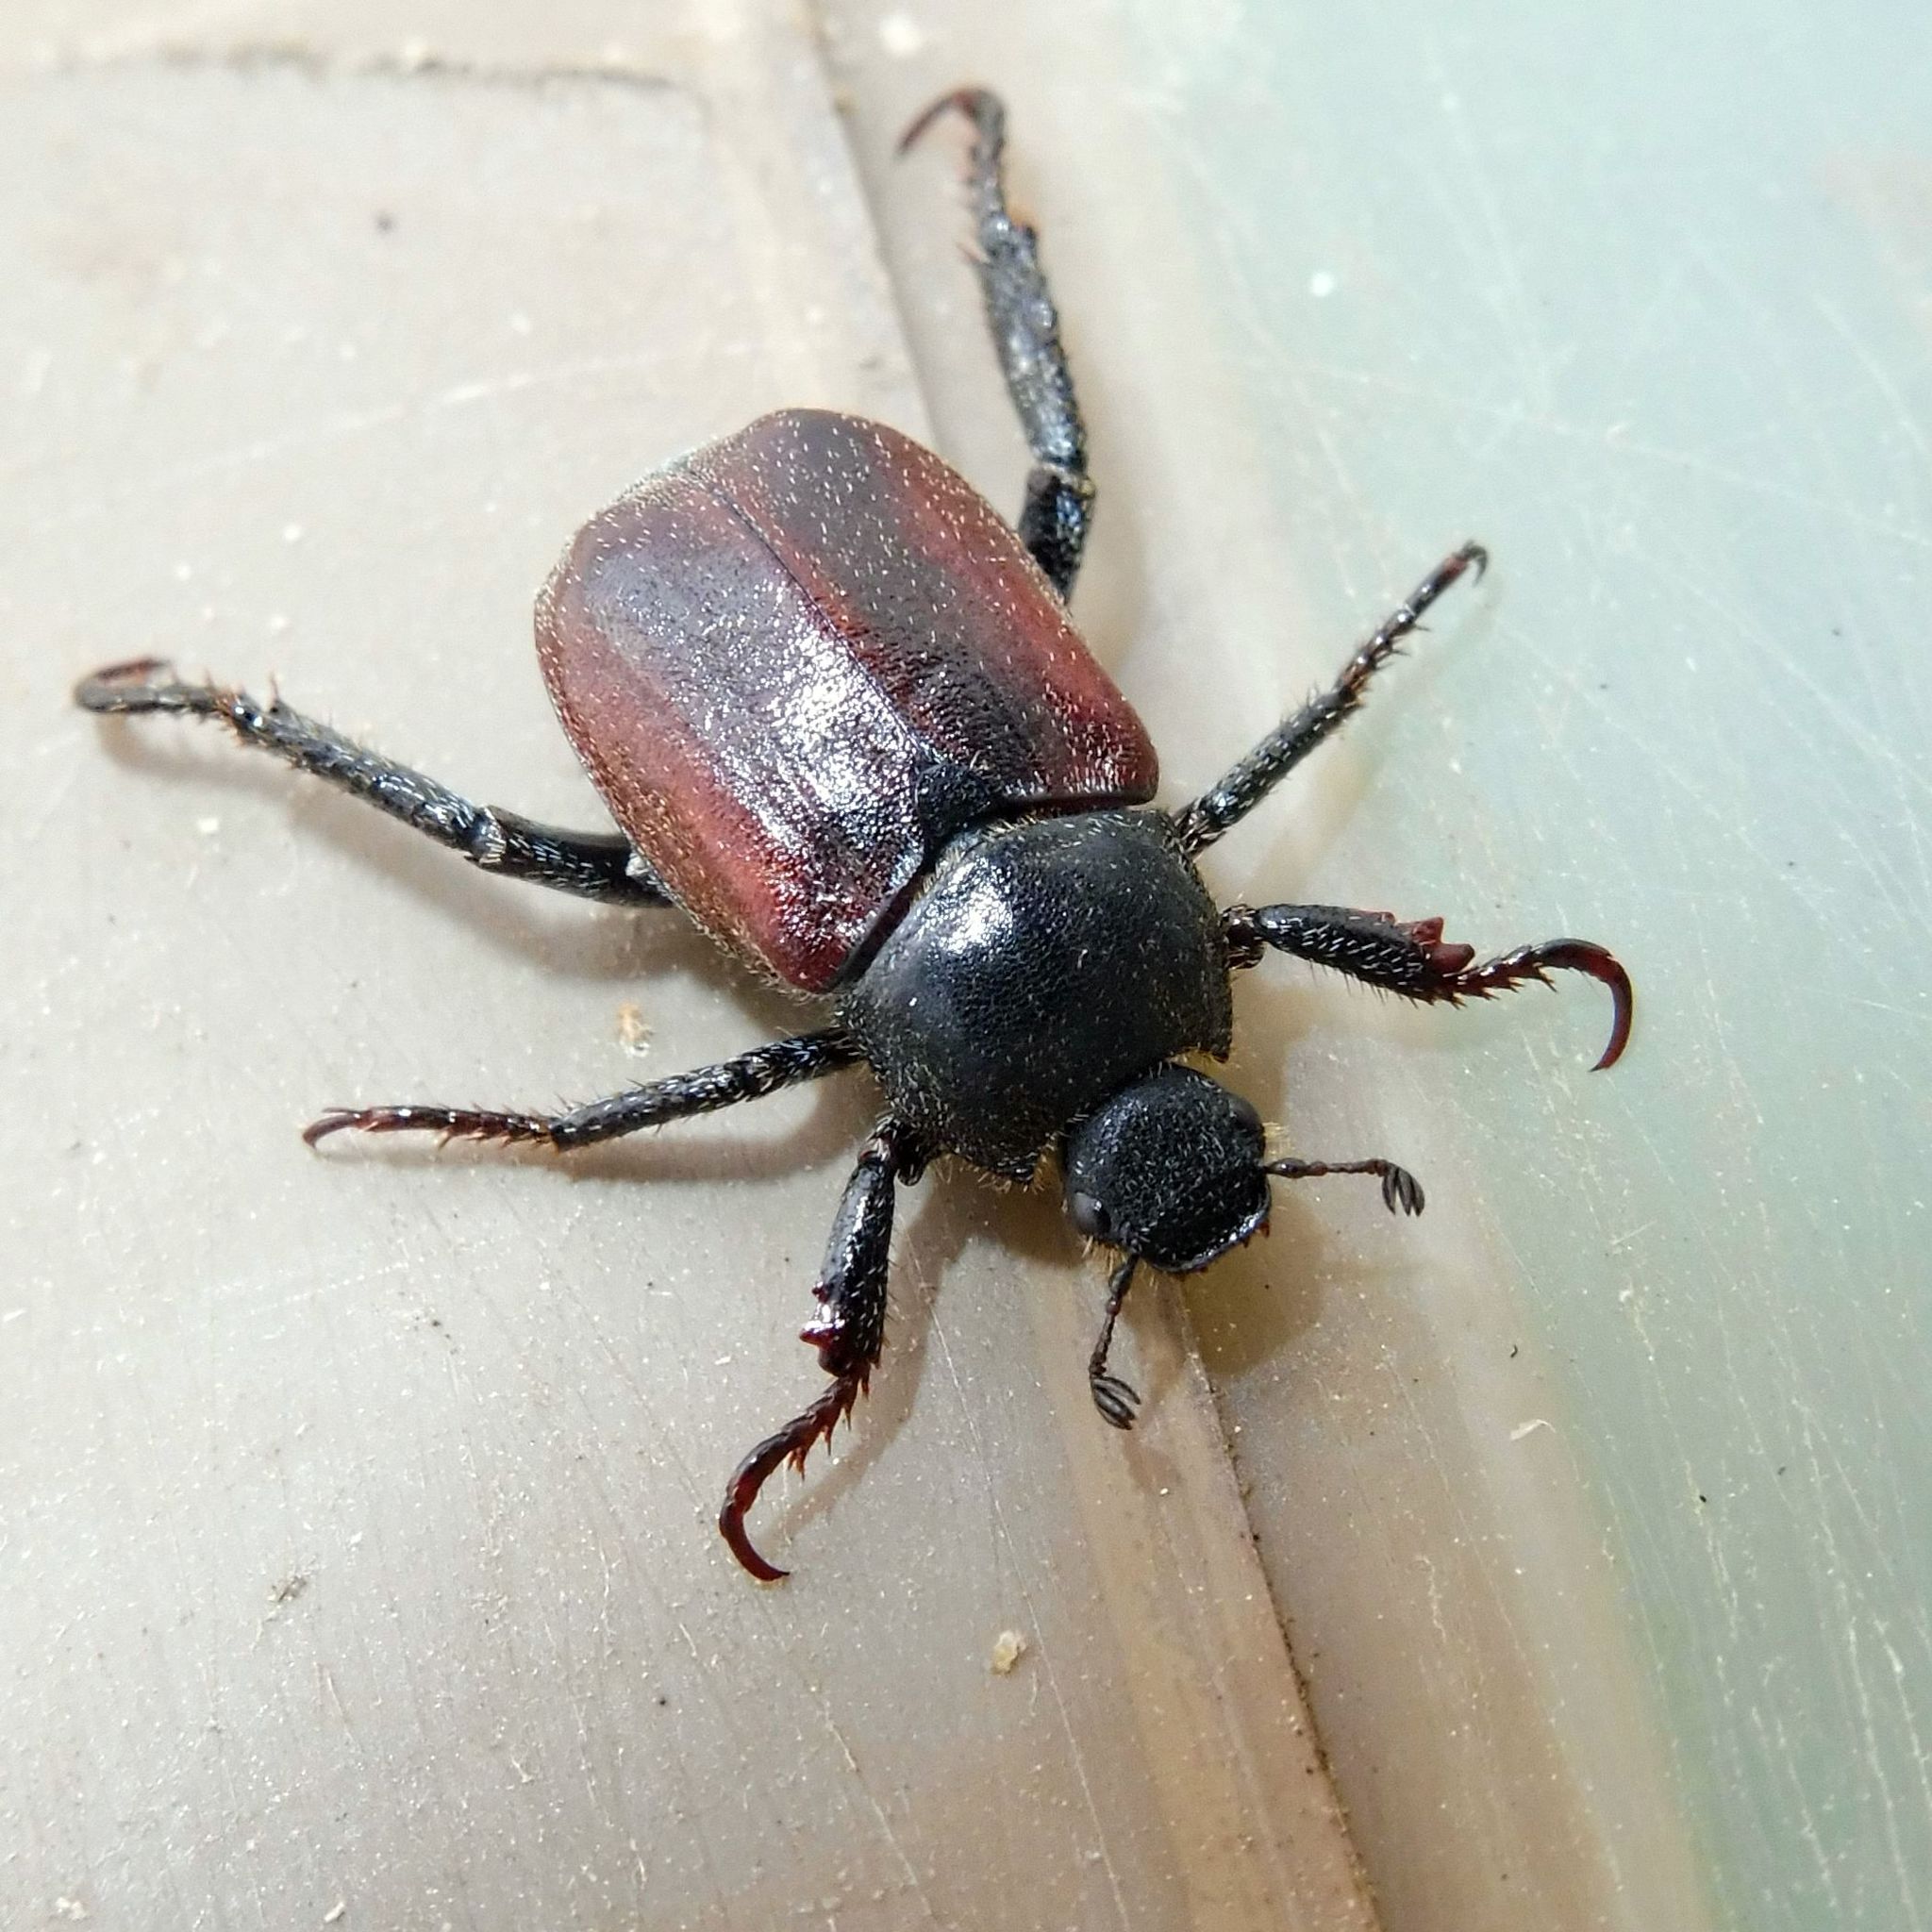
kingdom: Animalia
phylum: Arthropoda
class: Insecta
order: Coleoptera
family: Scarabaeidae
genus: Hoplia
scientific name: Hoplia philanthus
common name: Welsh chafer
